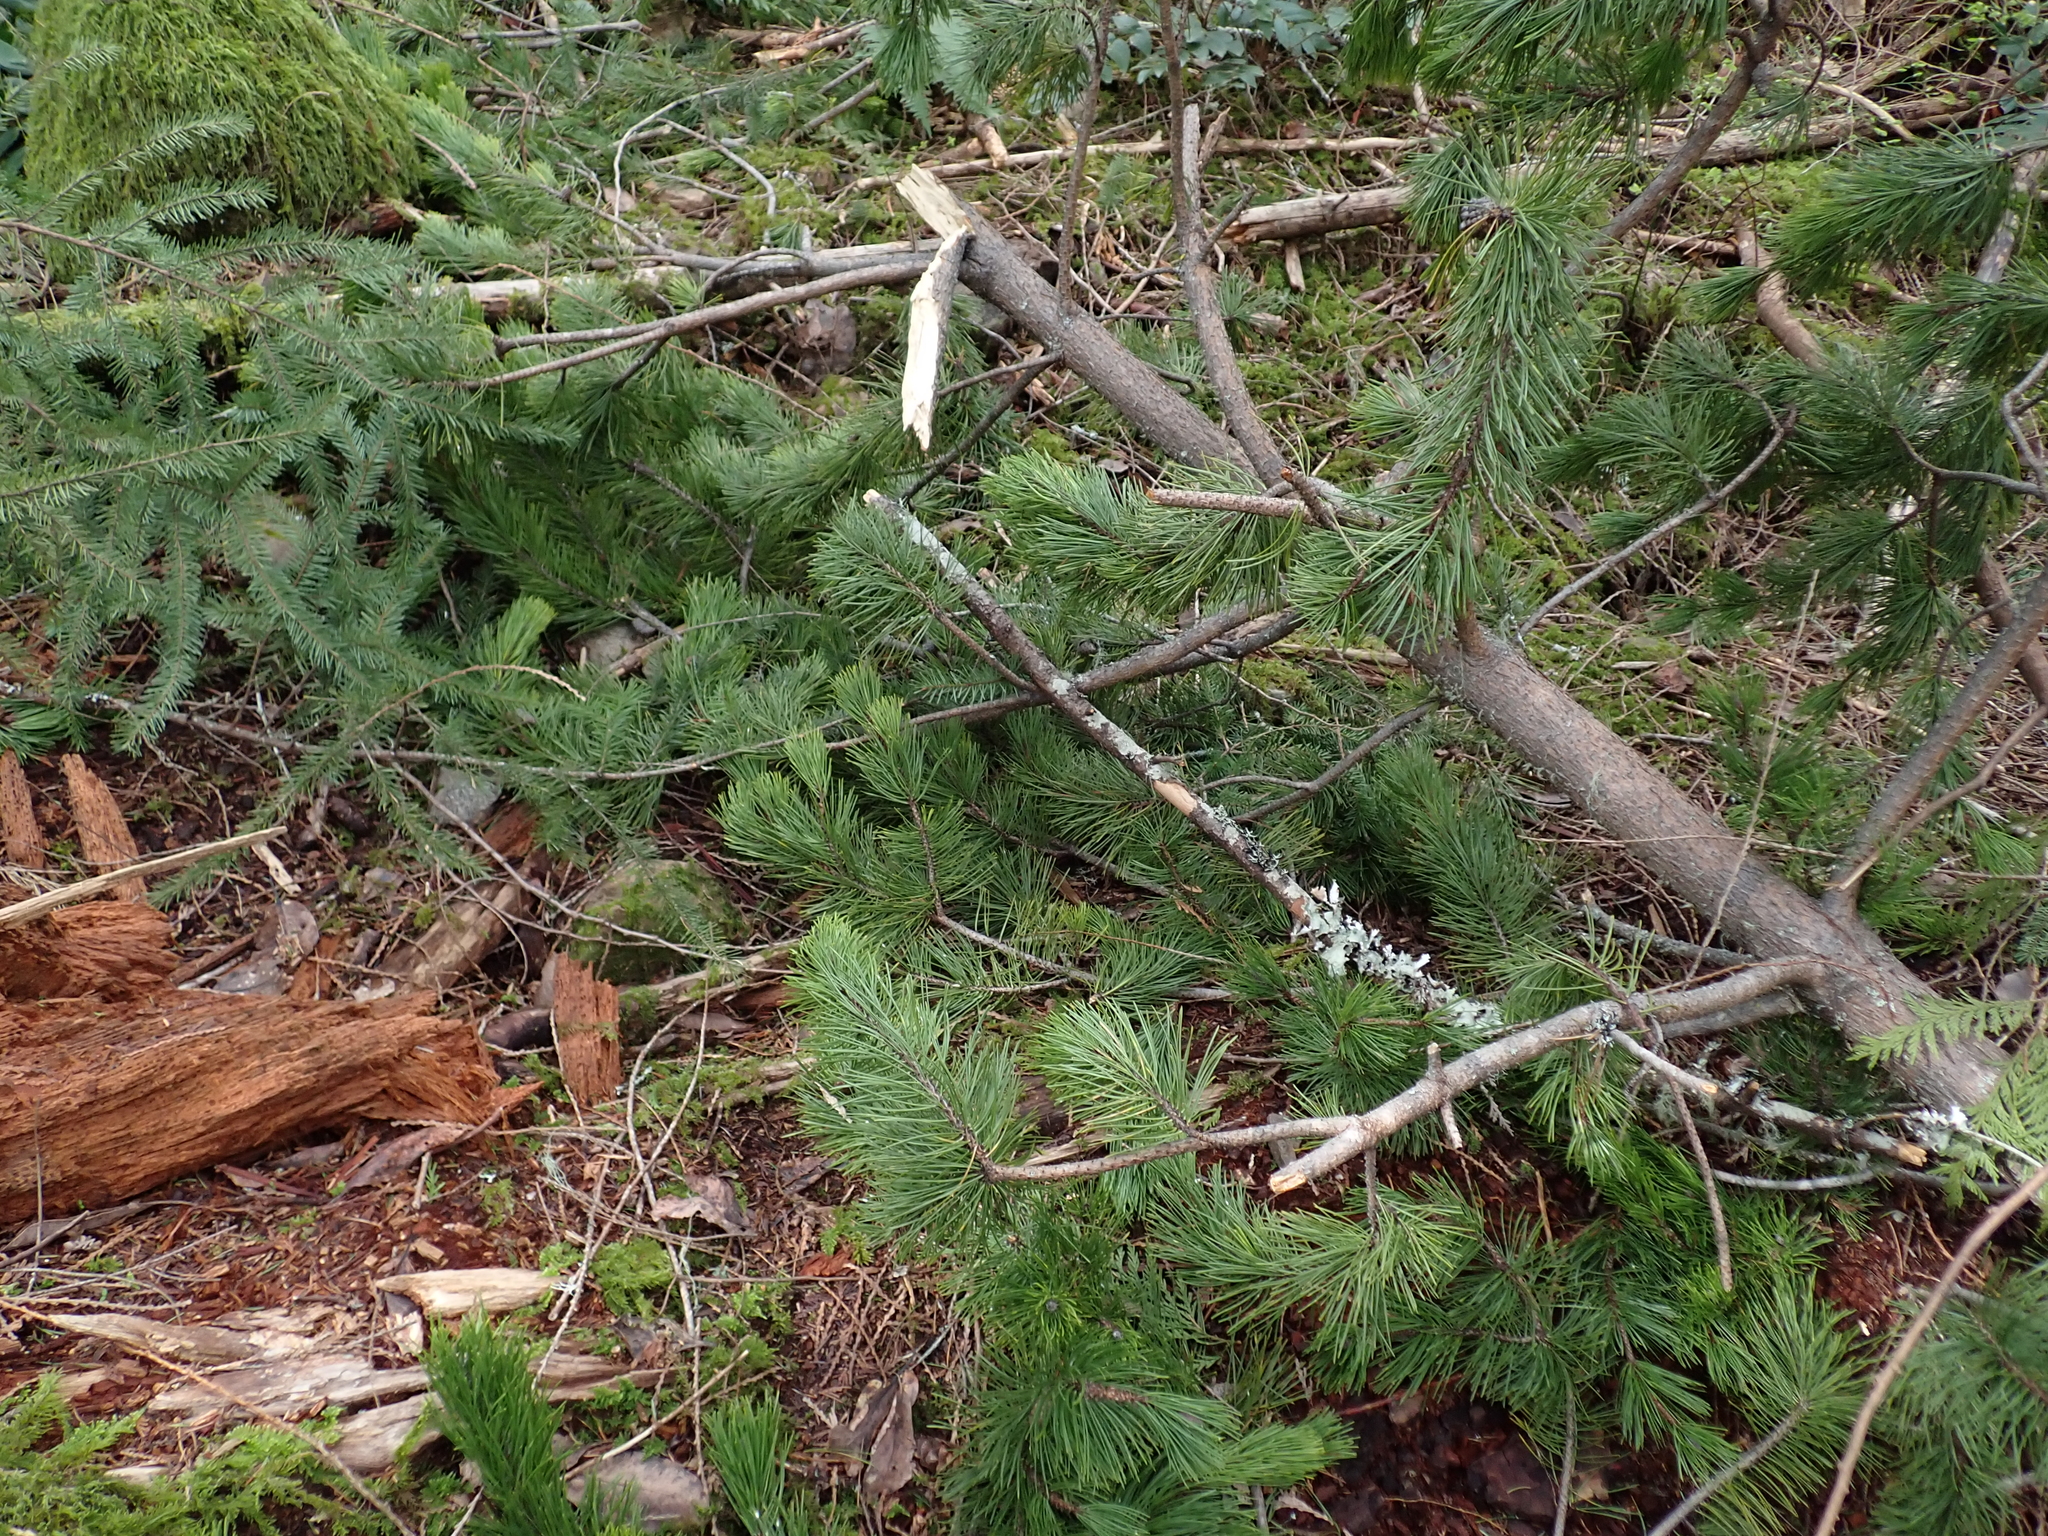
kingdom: Plantae
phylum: Tracheophyta
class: Pinopsida
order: Pinales
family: Pinaceae
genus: Pinus
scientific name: Pinus contorta
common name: Lodgepole pine
